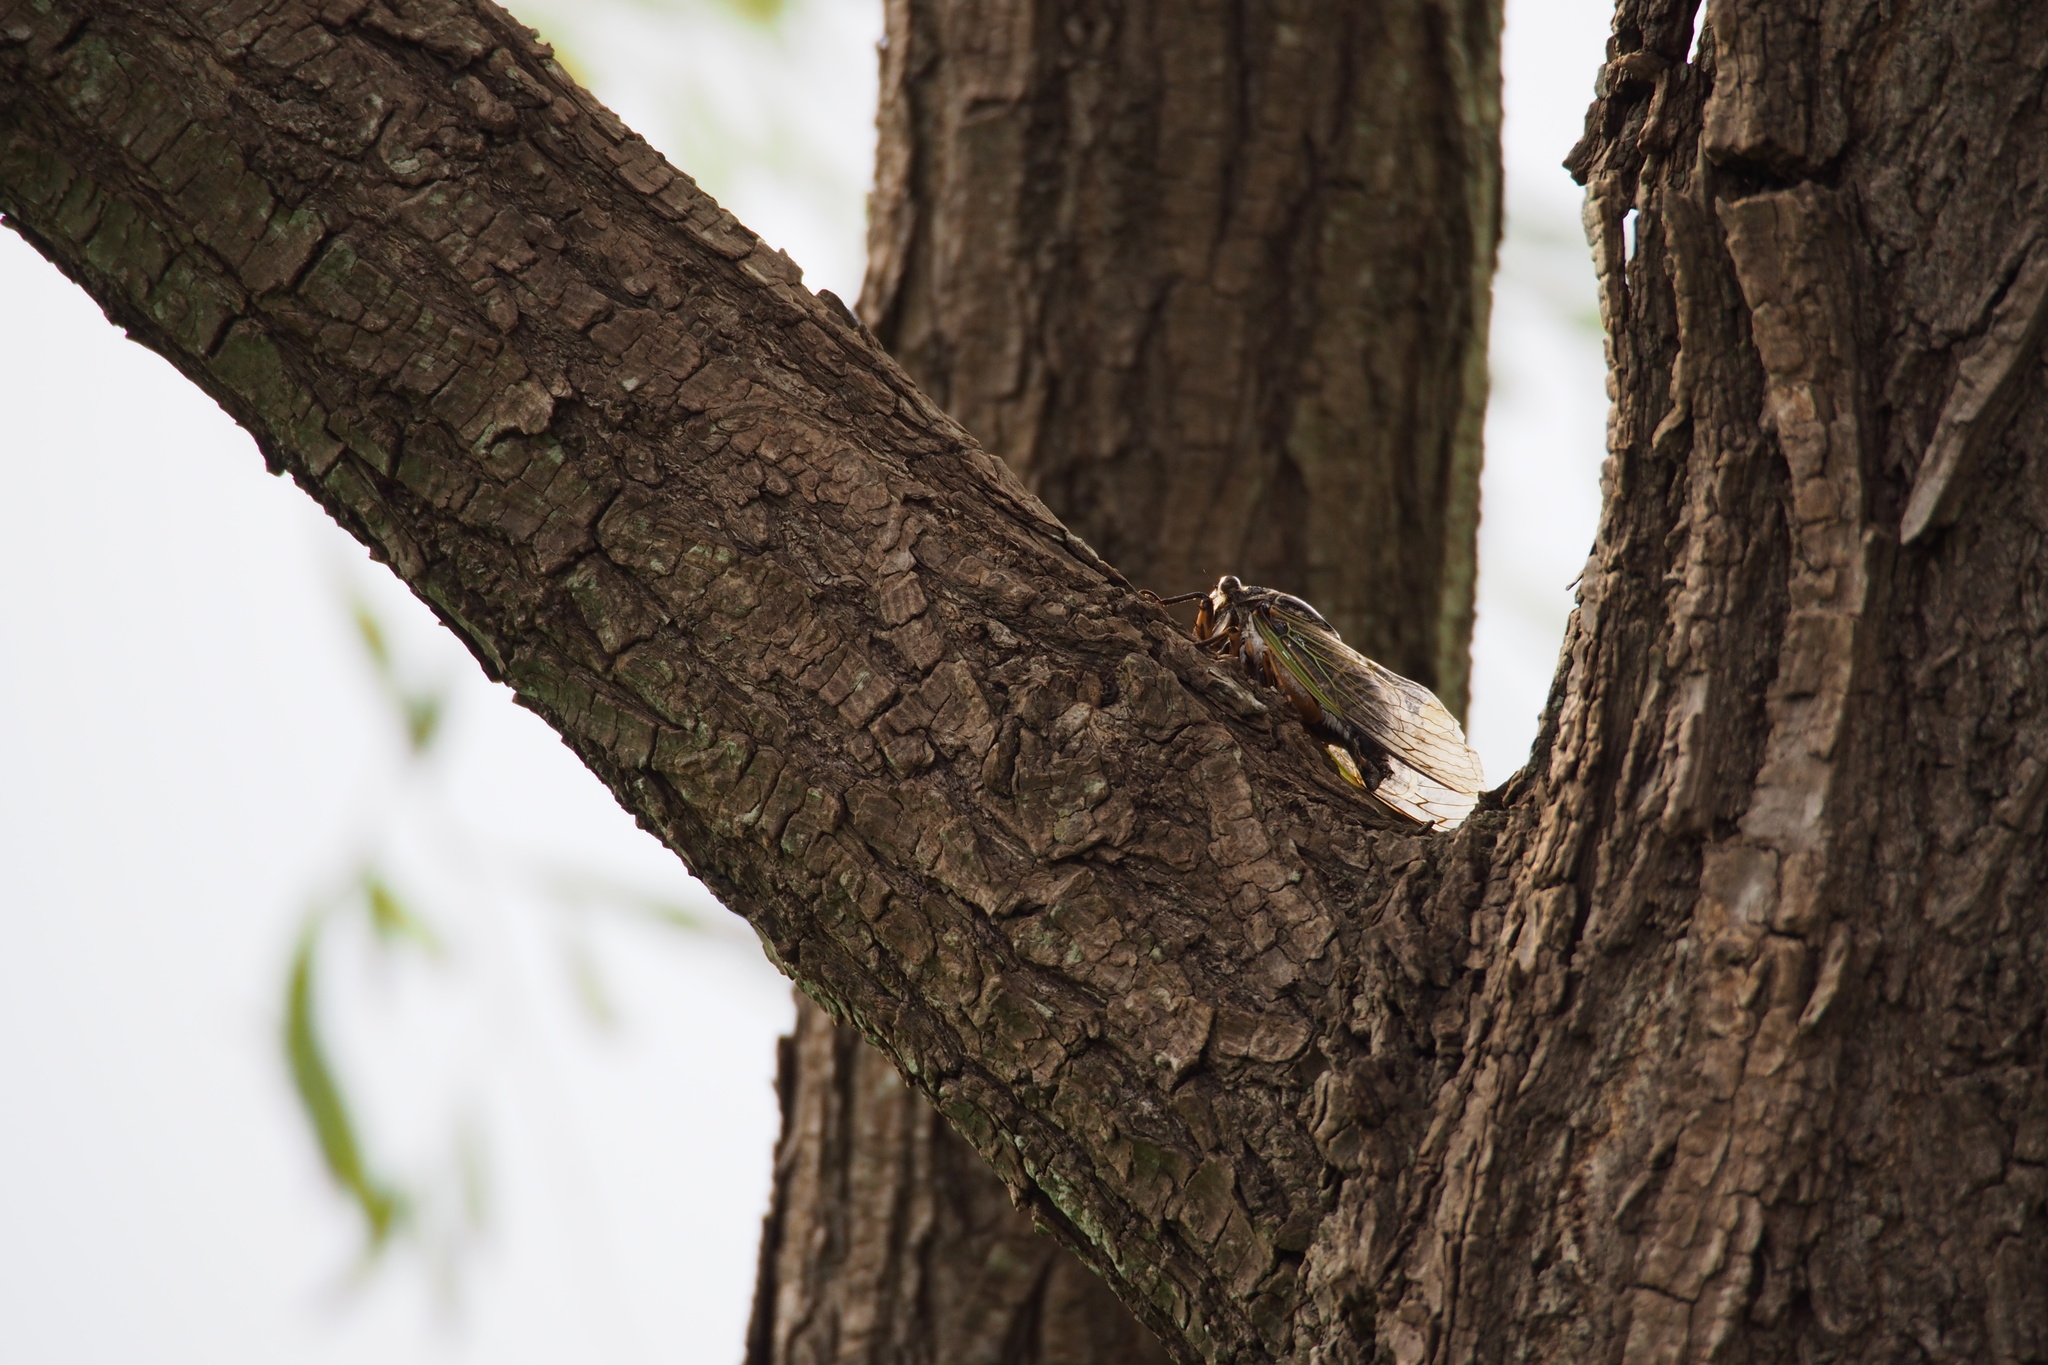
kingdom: Animalia
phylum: Arthropoda
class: Insecta
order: Hemiptera
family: Cicadidae
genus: Cryptotympana
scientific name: Cryptotympana facialis
